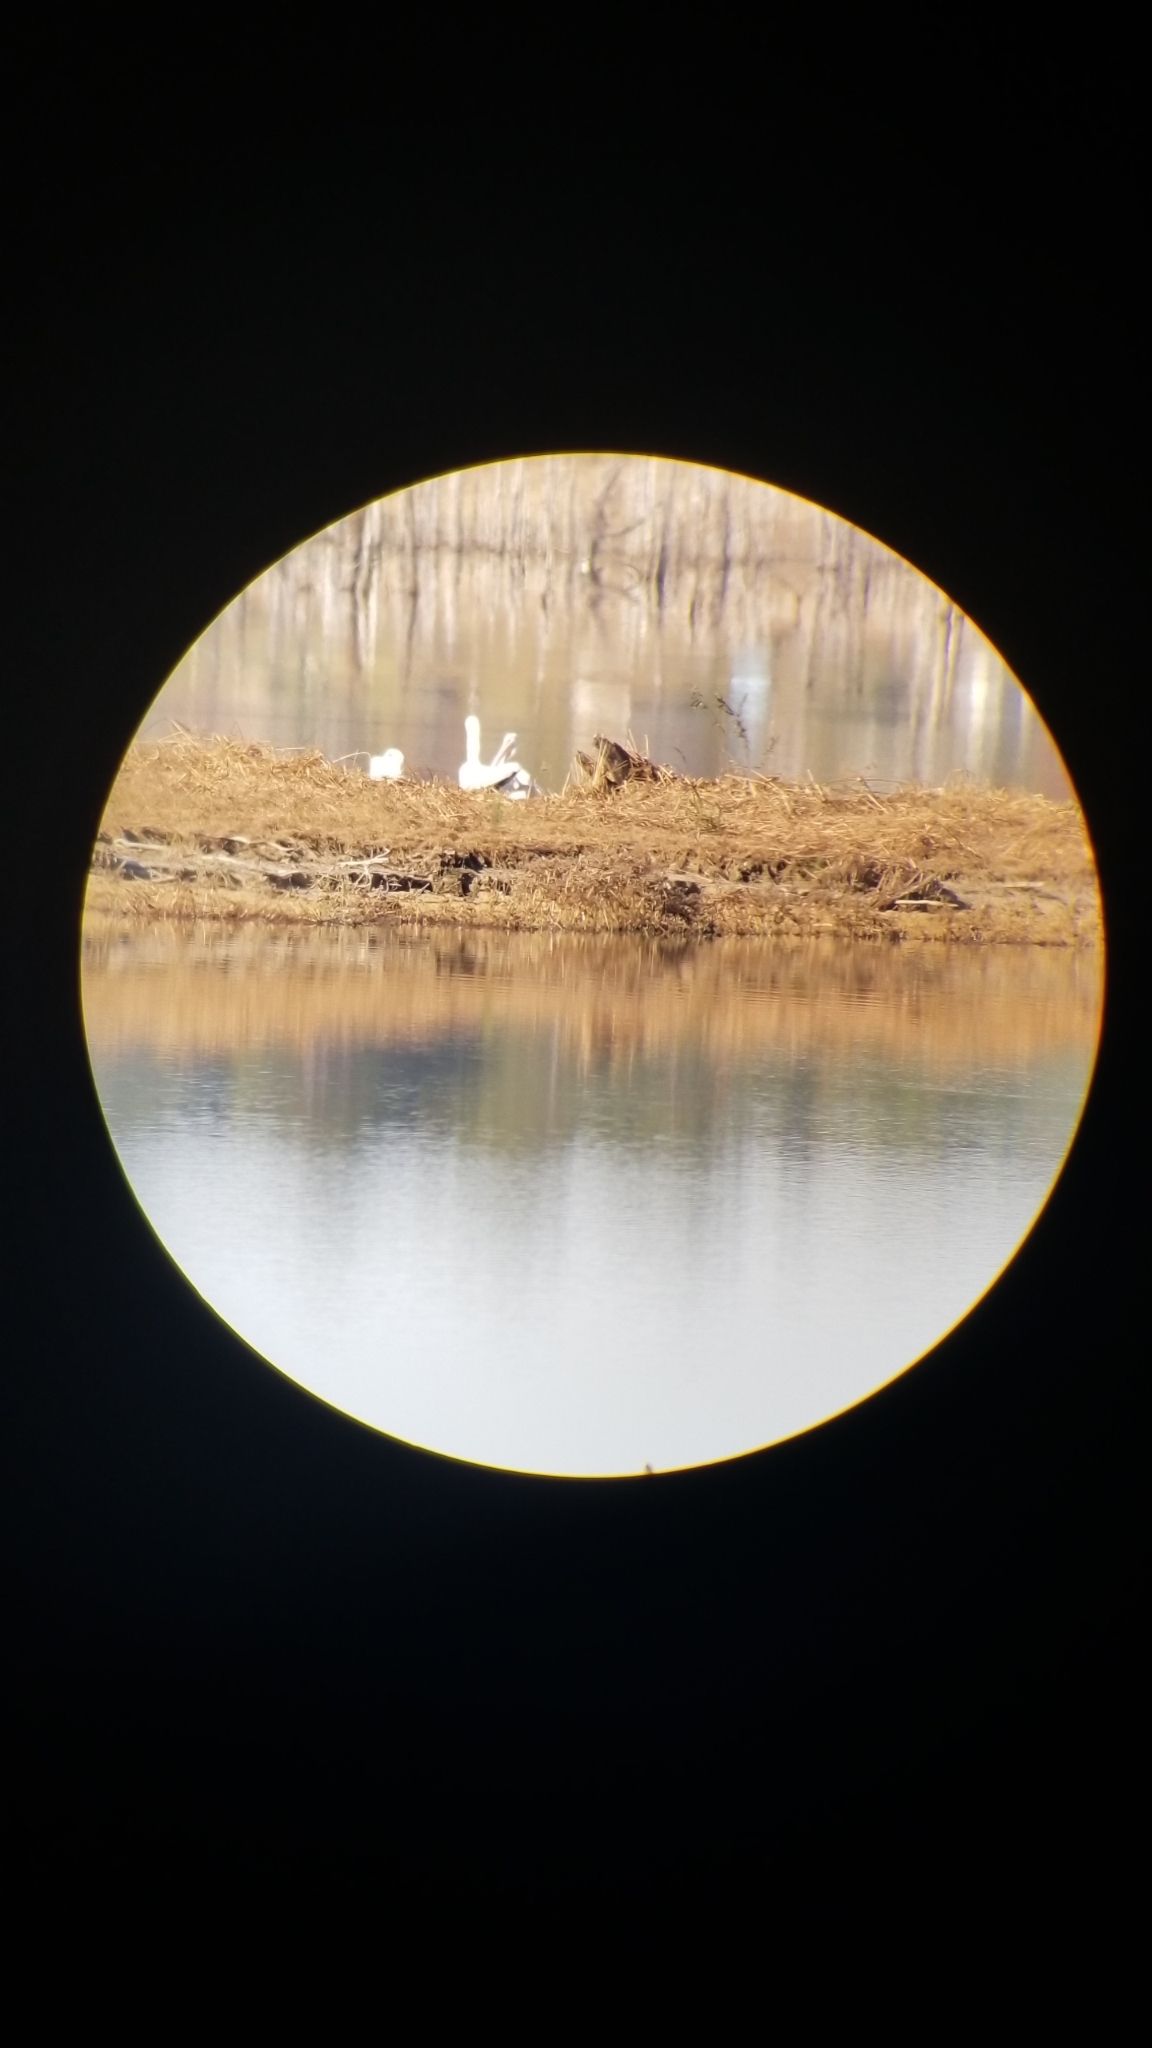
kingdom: Animalia
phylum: Chordata
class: Aves
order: Pelecaniformes
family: Pelecanidae
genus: Pelecanus
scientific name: Pelecanus erythrorhynchos
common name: American white pelican
